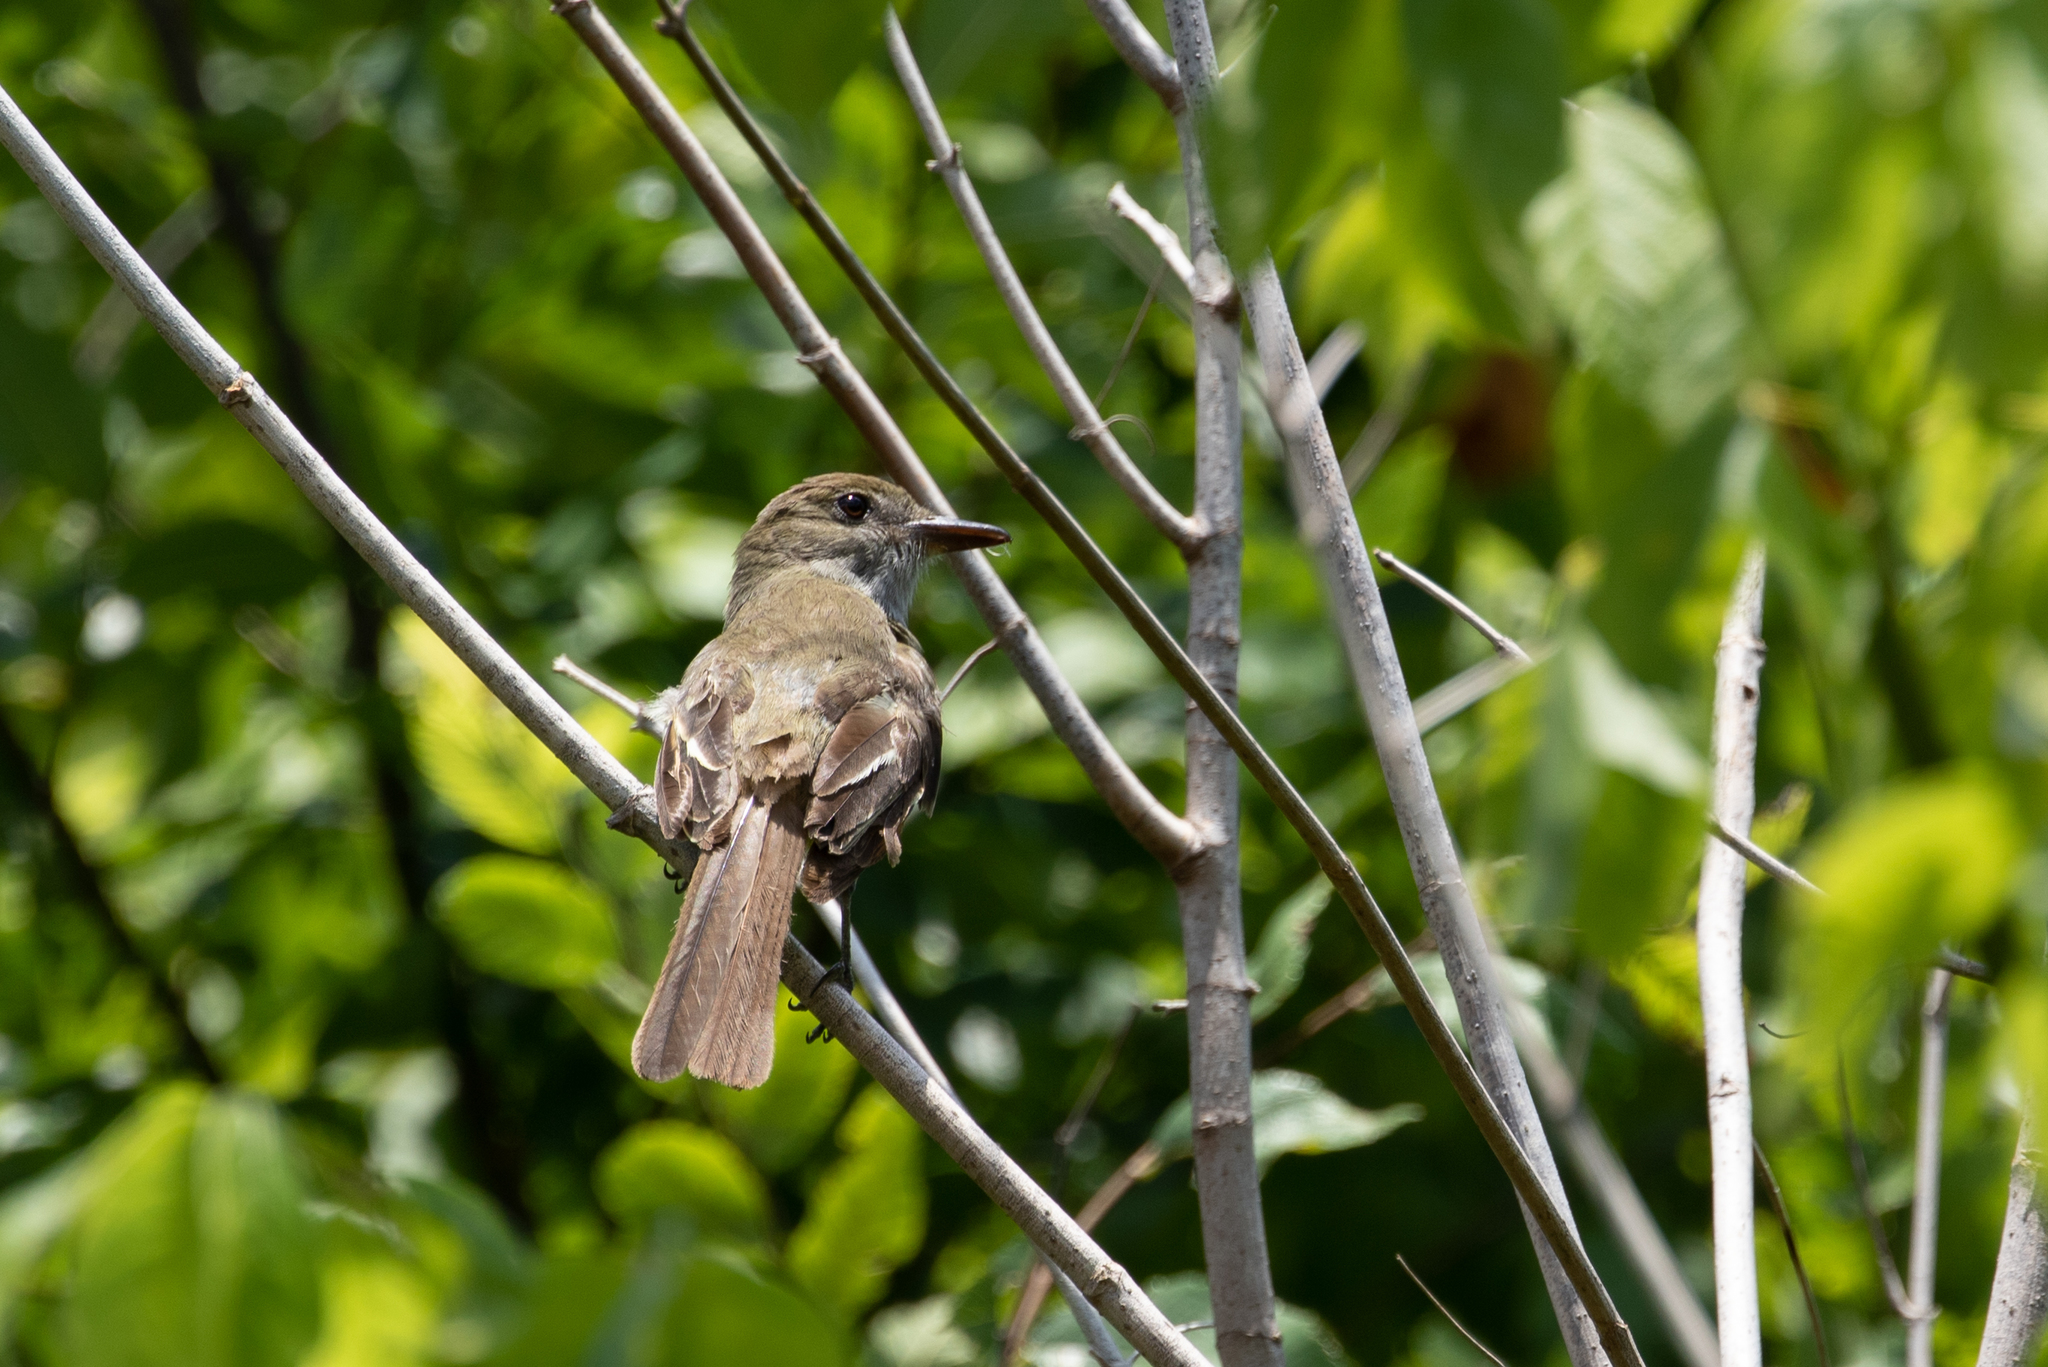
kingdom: Animalia
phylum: Chordata
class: Aves
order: Passeriformes
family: Tyrannidae
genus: Myiarchus
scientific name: Myiarchus crinitus
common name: Great crested flycatcher
